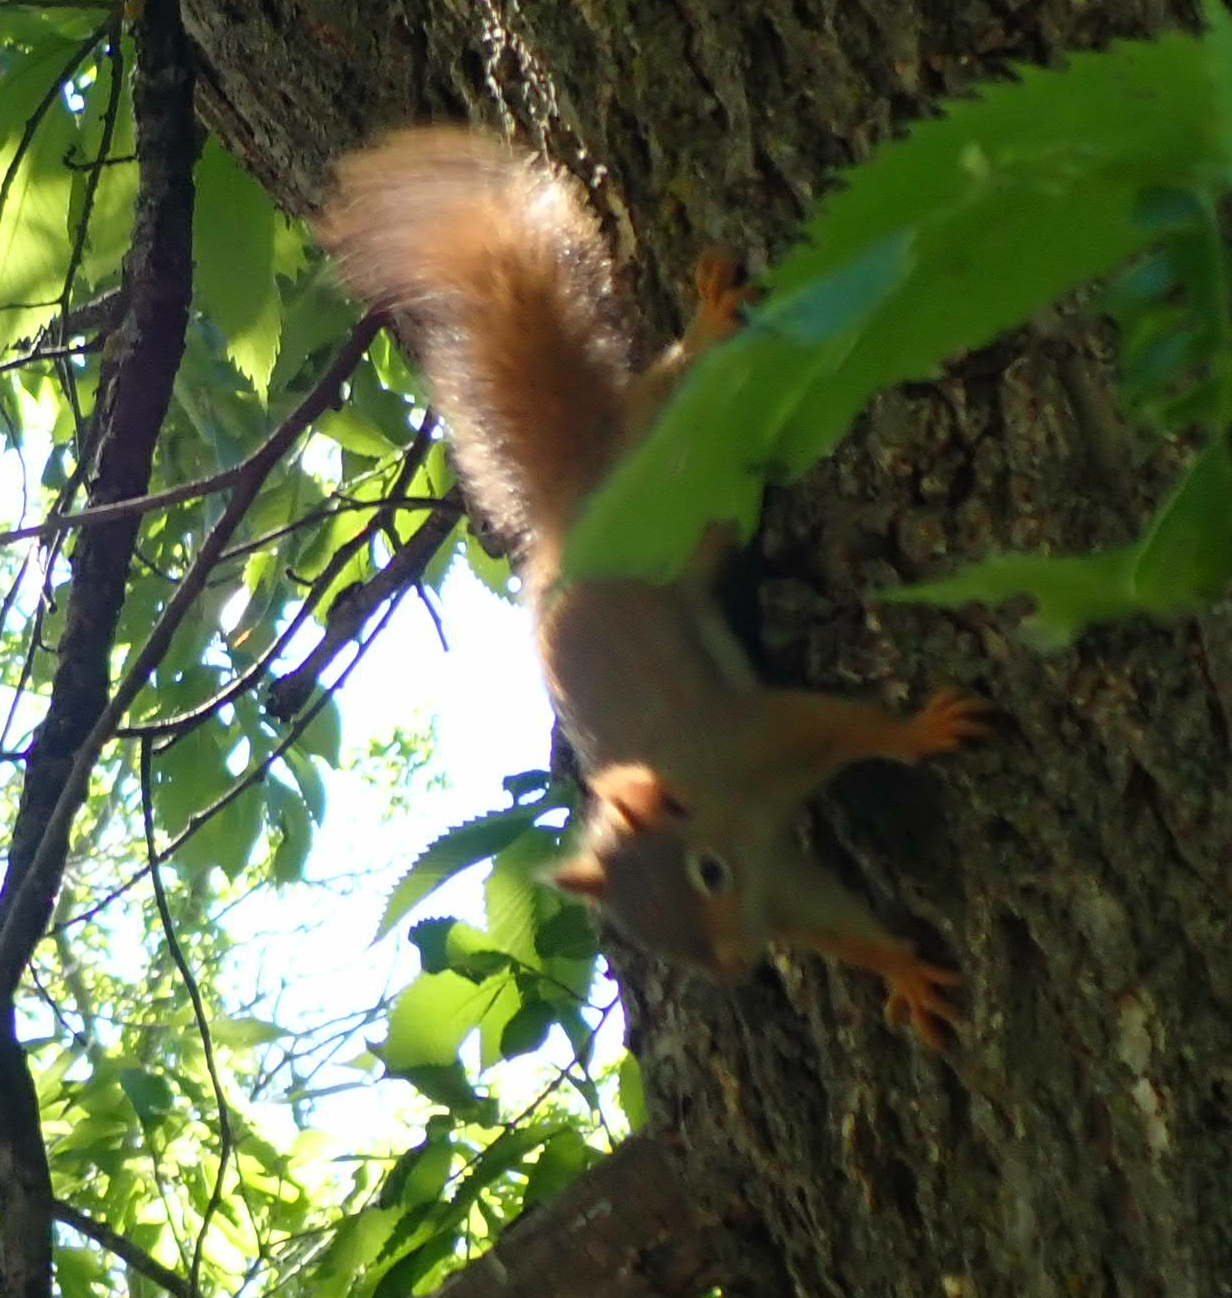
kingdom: Animalia
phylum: Chordata
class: Mammalia
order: Rodentia
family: Sciuridae
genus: Tamiasciurus
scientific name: Tamiasciurus hudsonicus
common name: Red squirrel
